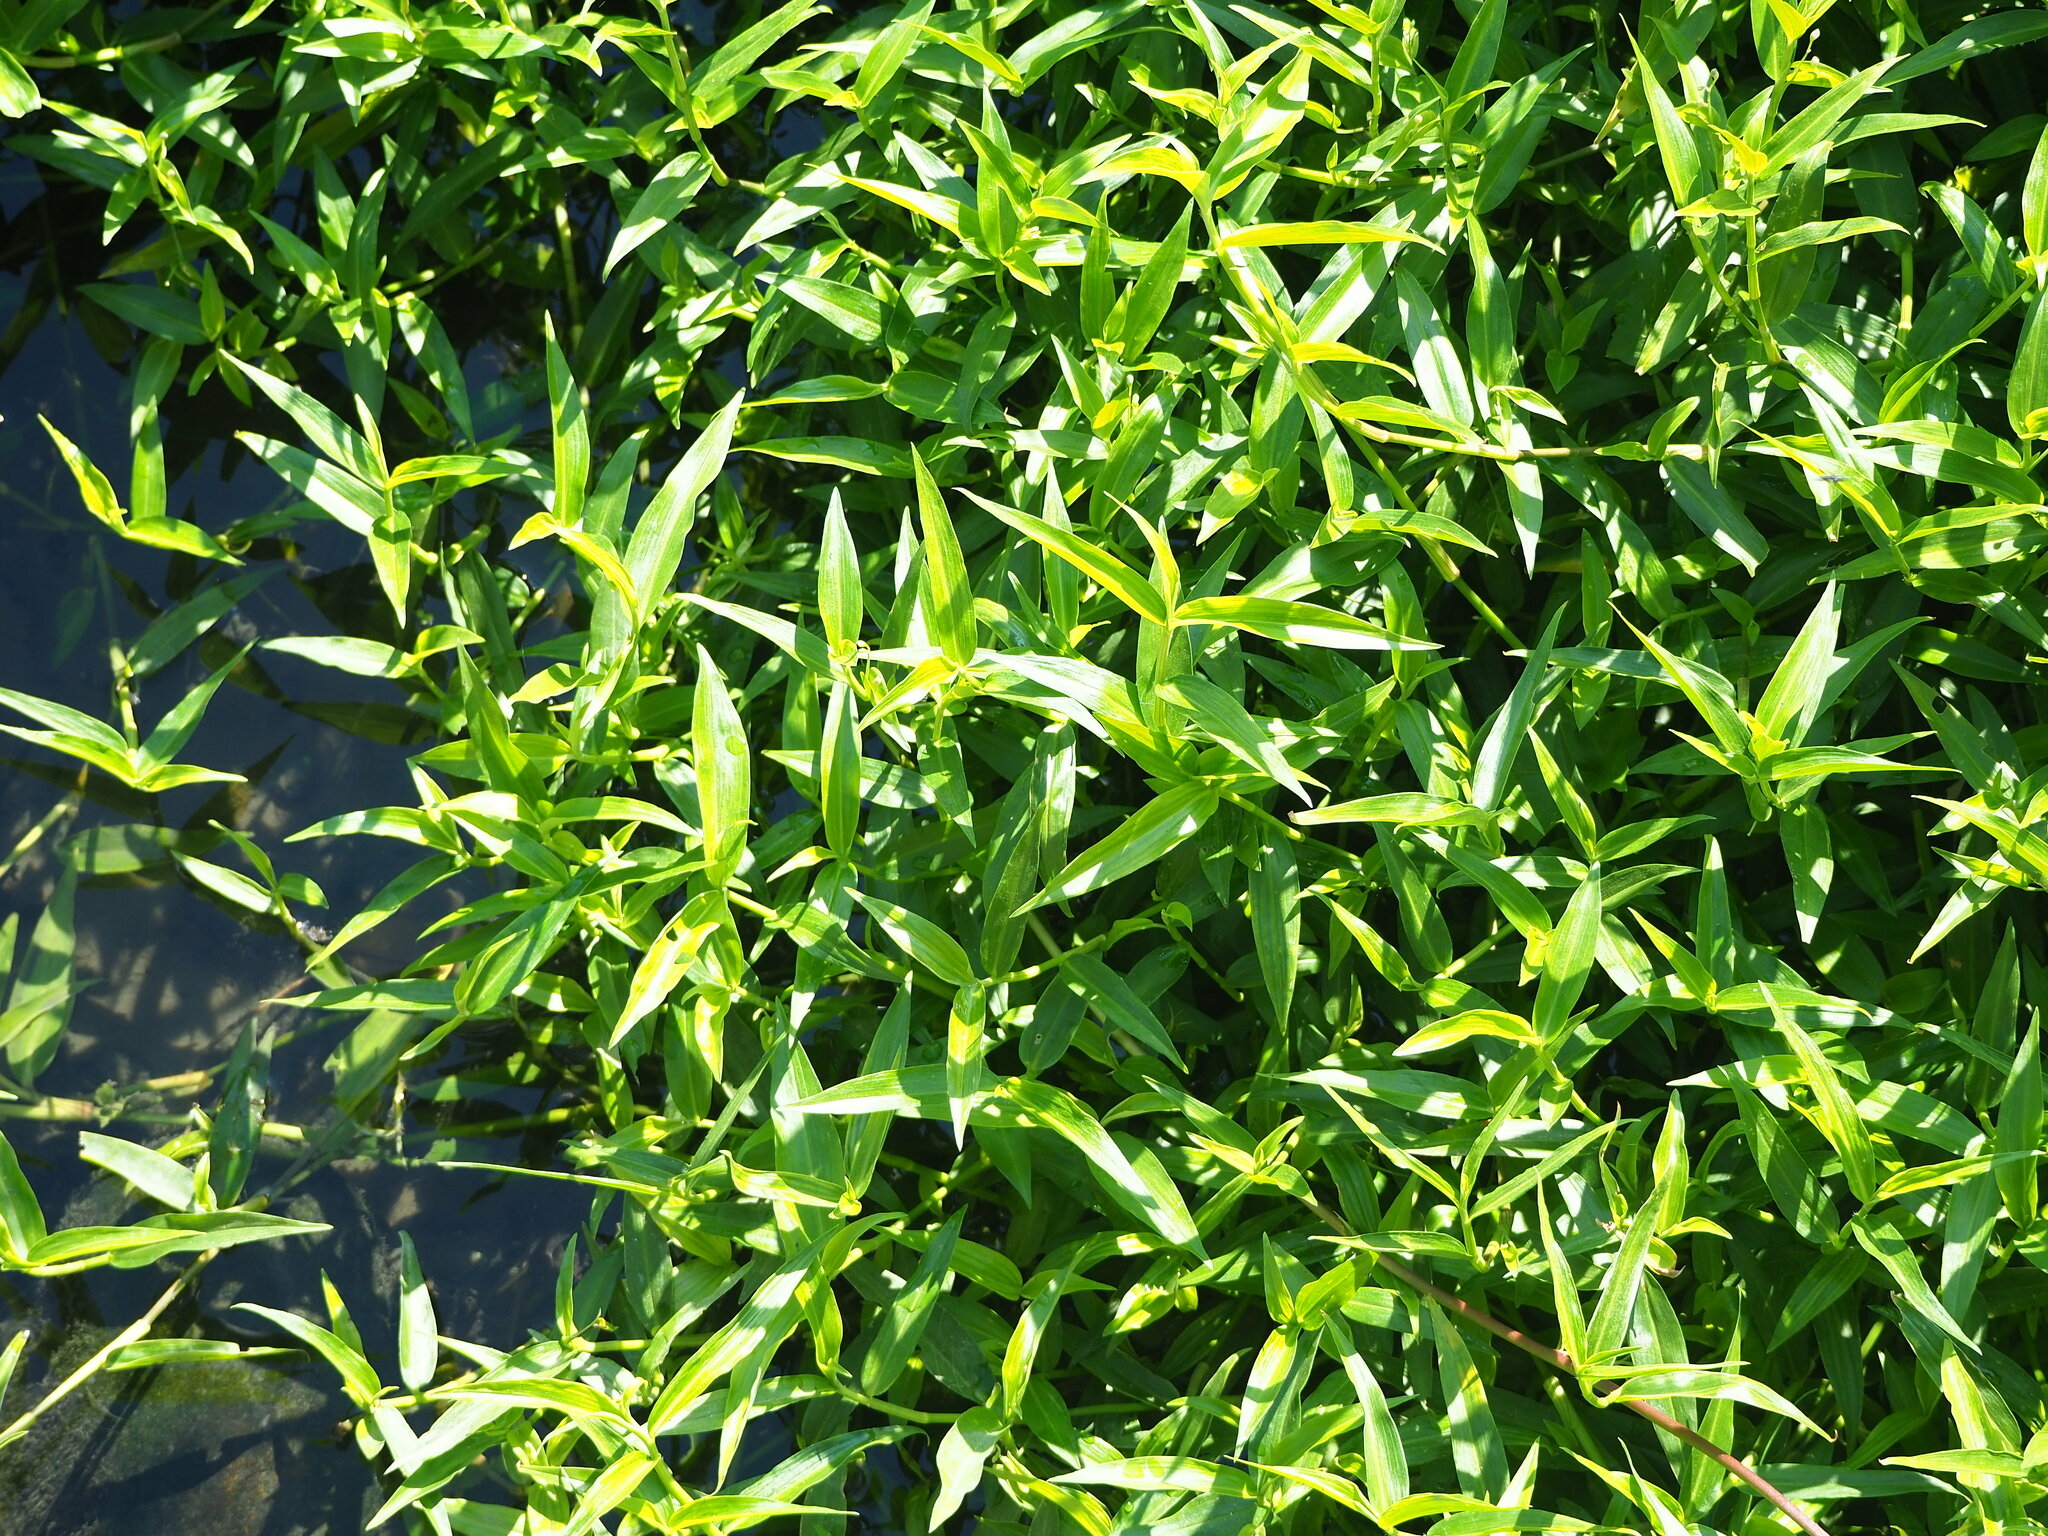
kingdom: Plantae
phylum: Tracheophyta
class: Liliopsida
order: Commelinales
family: Commelinaceae
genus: Commelina
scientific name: Commelina diffusa
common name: Climbing dayflower
